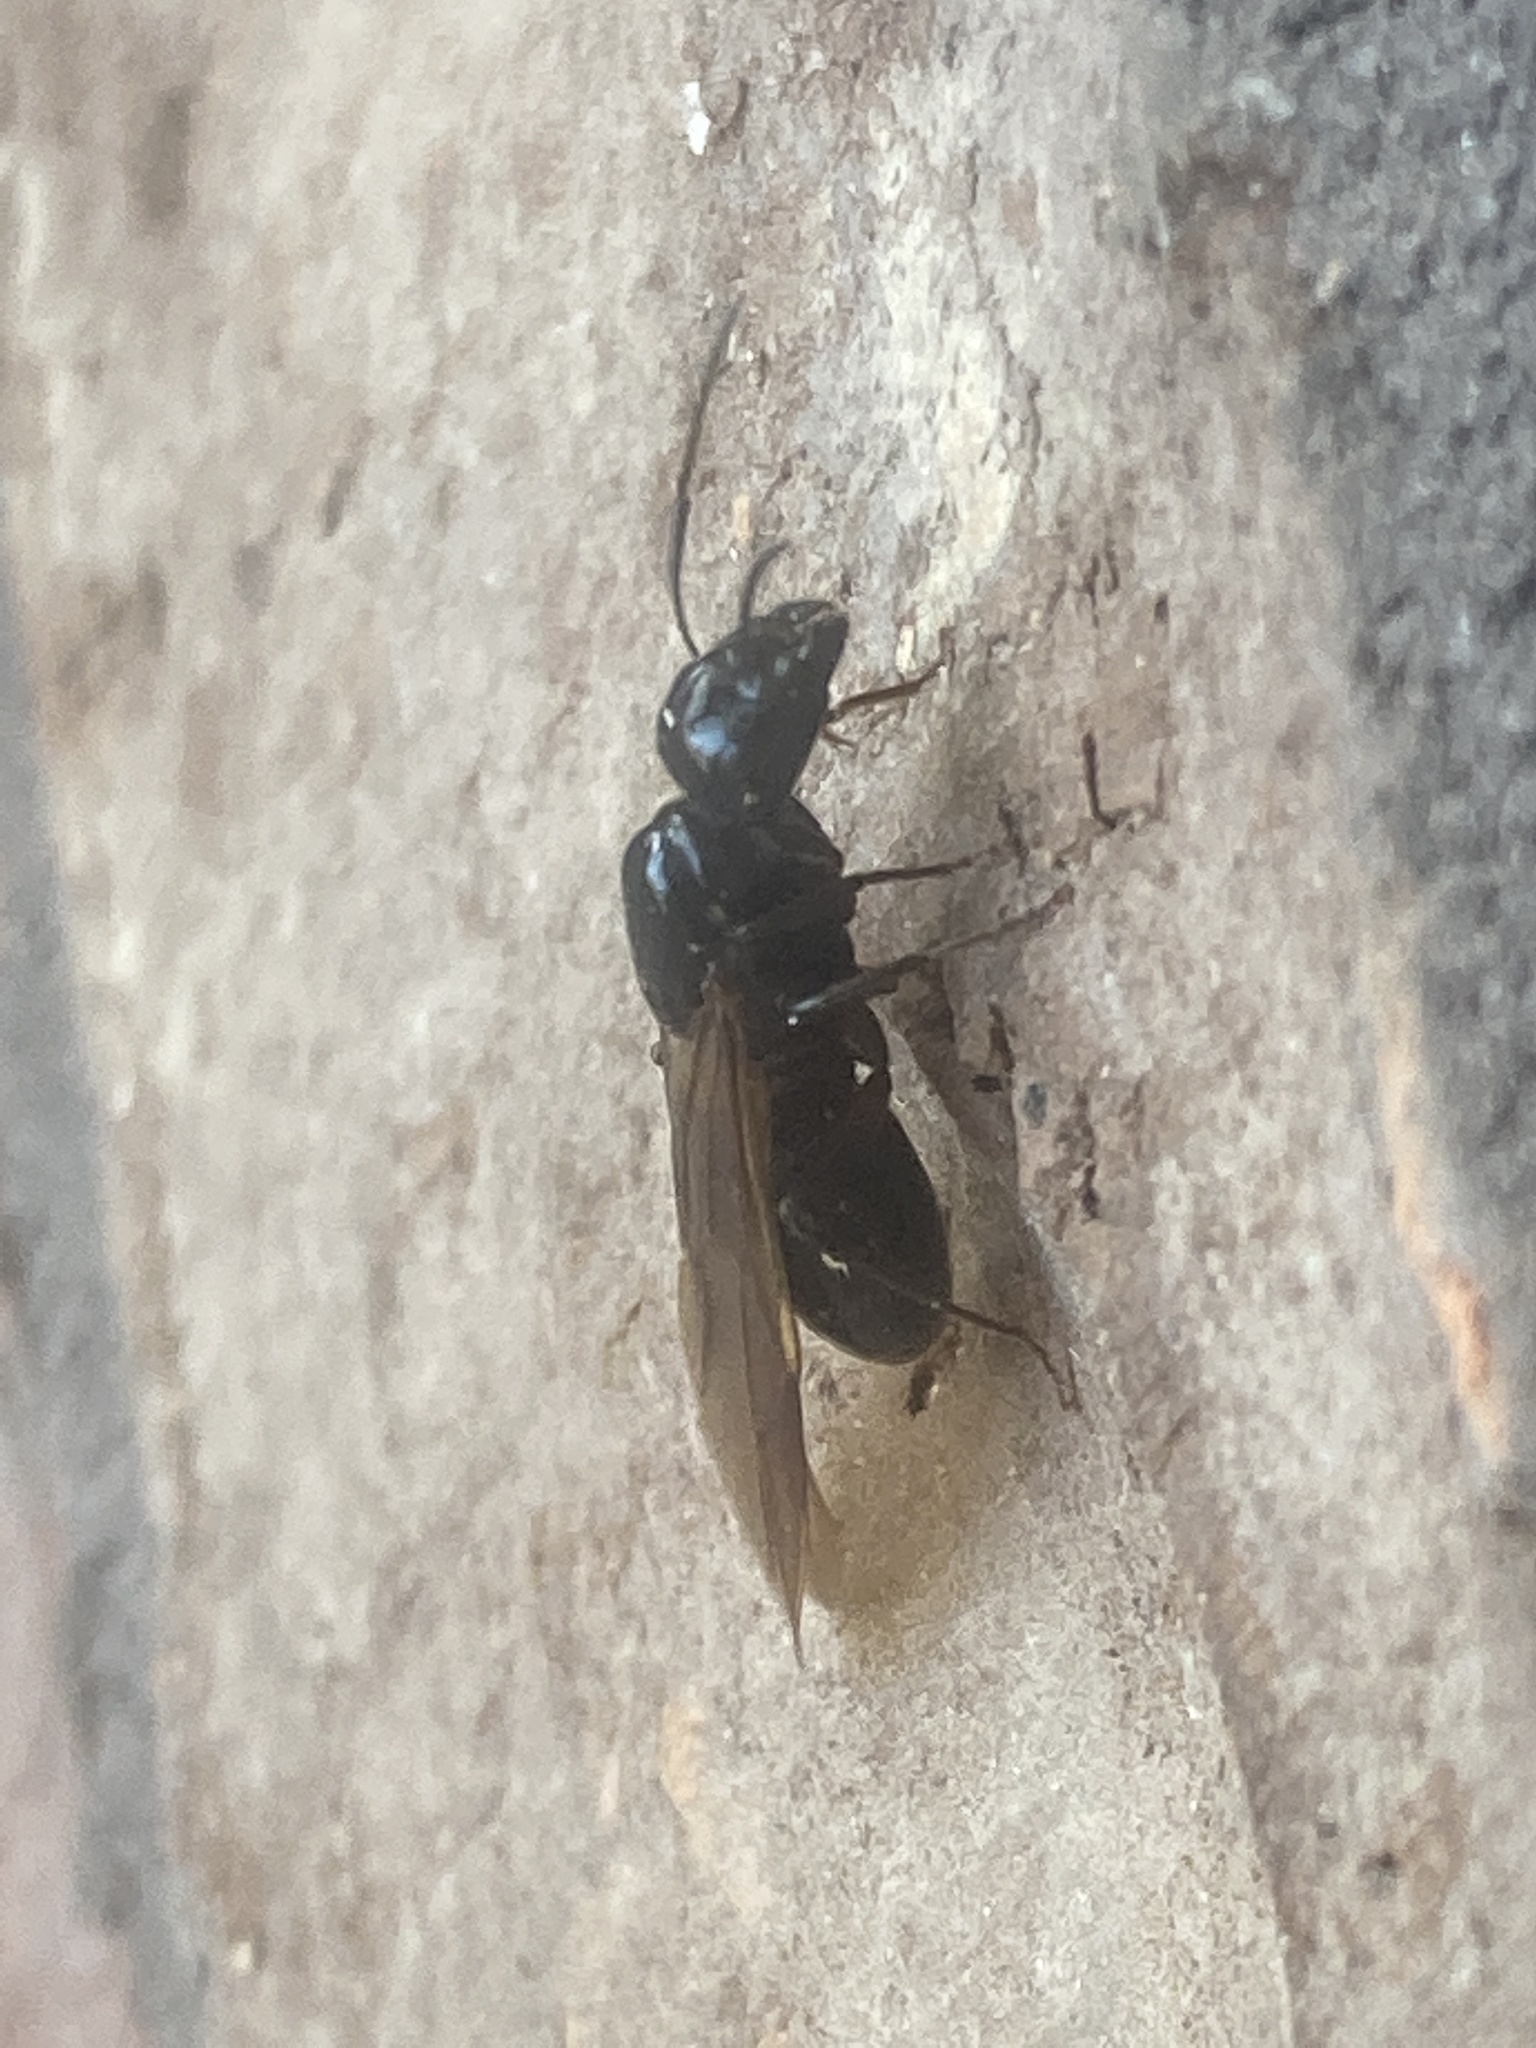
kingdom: Animalia
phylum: Arthropoda
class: Insecta
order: Hymenoptera
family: Formicidae
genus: Camponotus
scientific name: Camponotus pennsylvanicus
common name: Black carpenter ant
